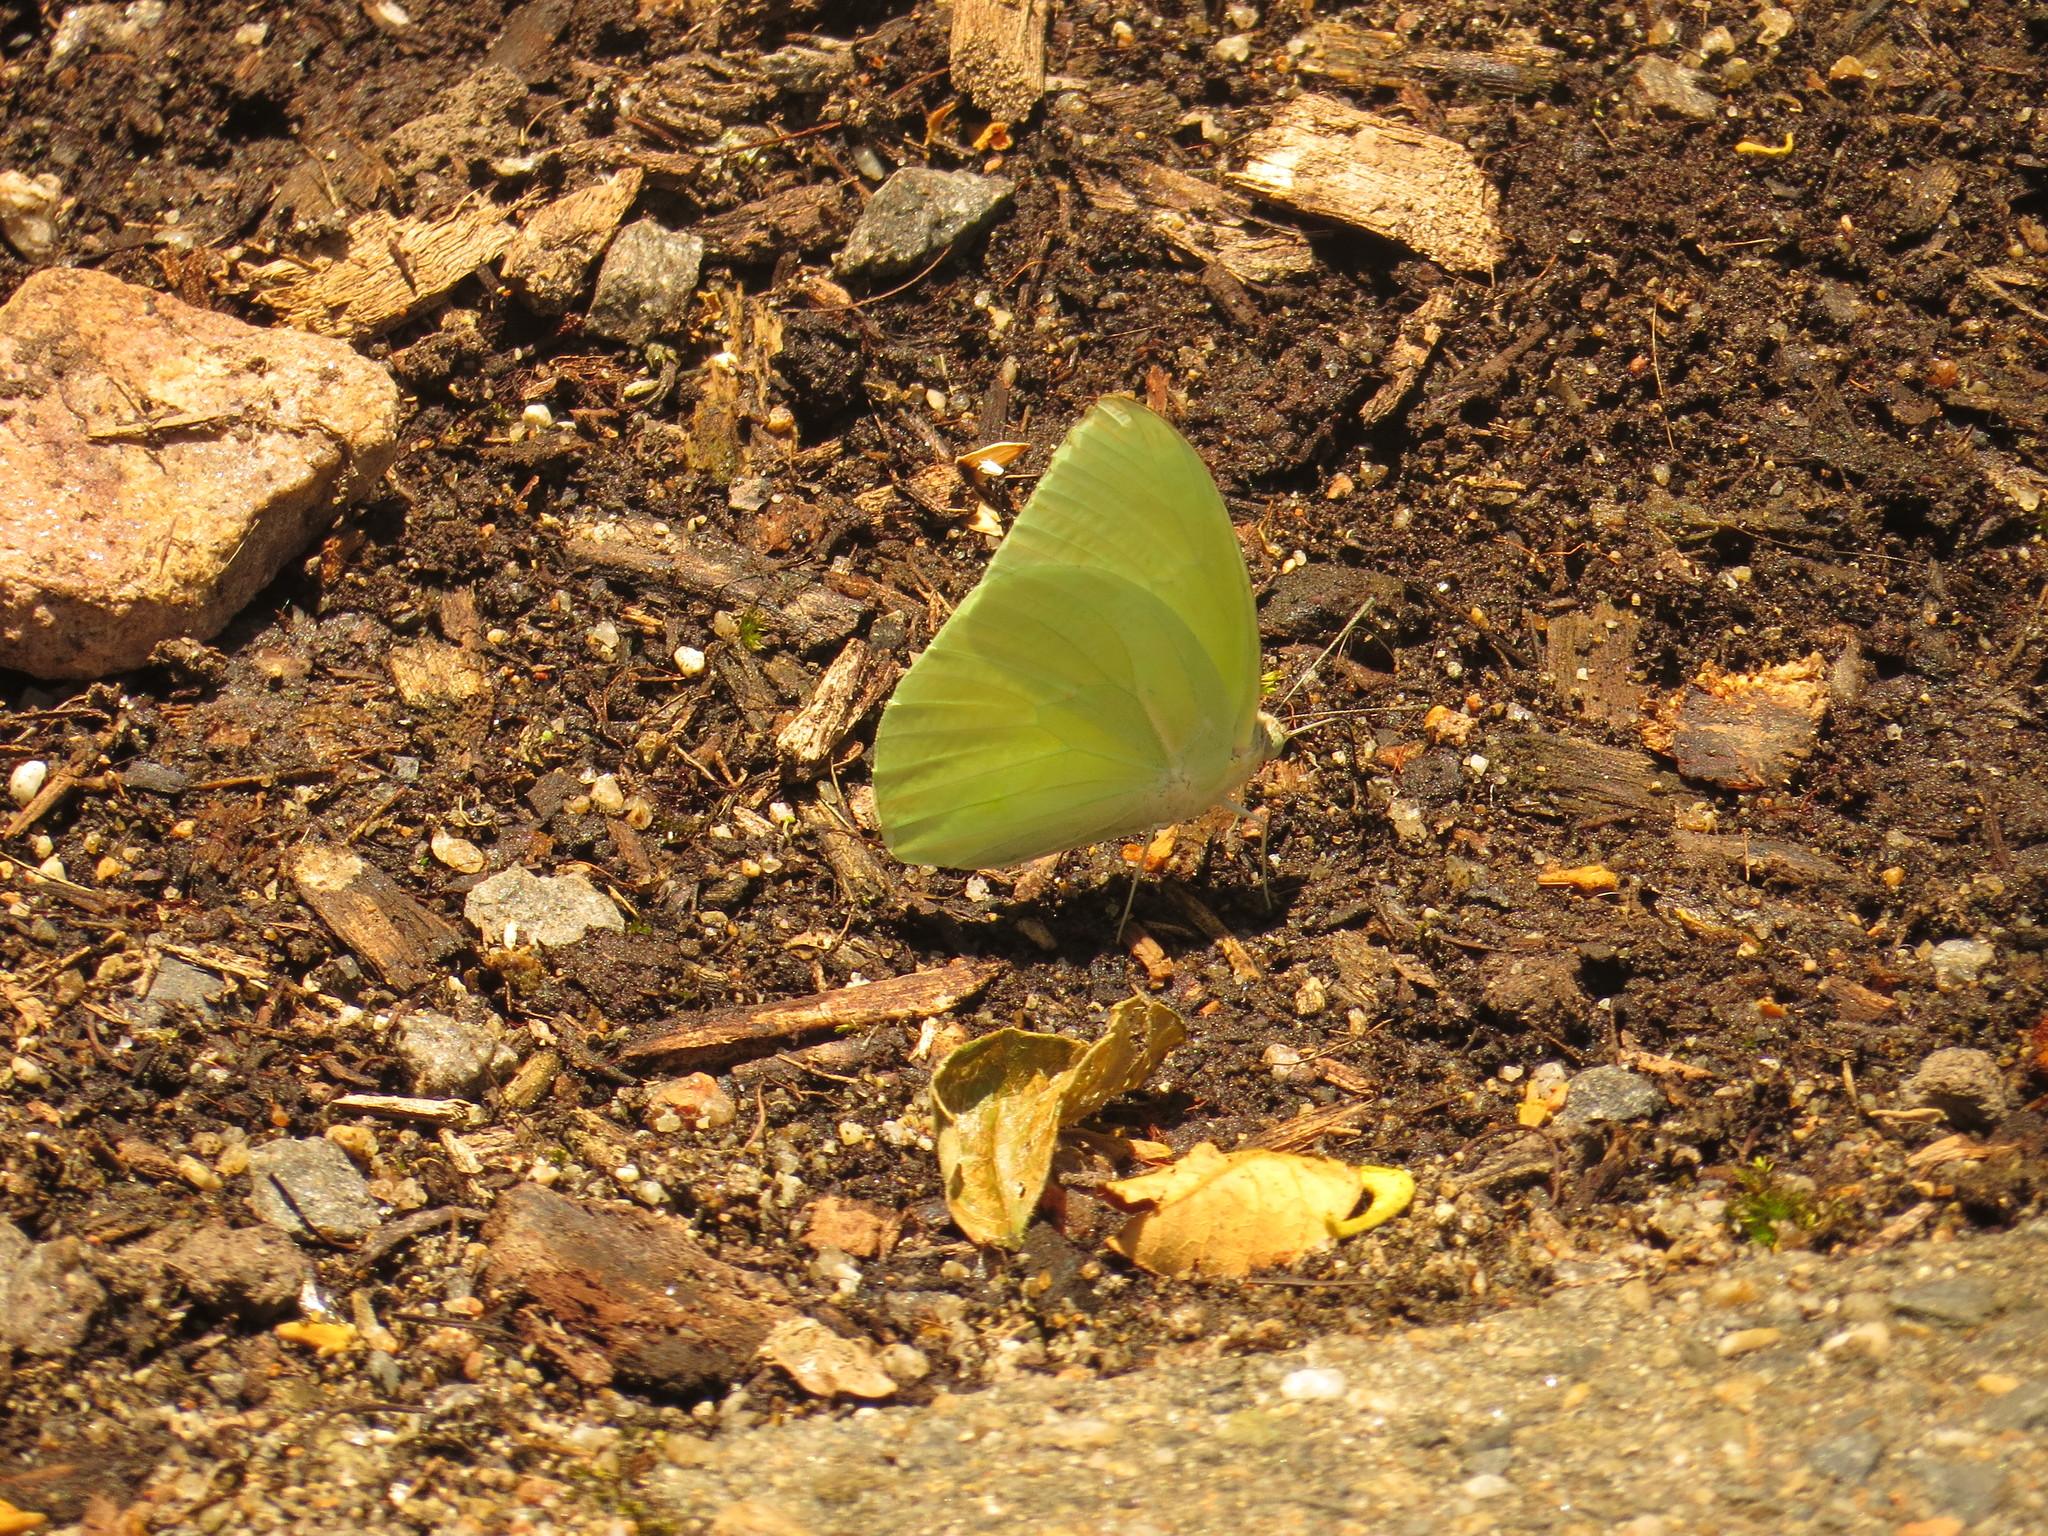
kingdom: Animalia
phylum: Arthropoda
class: Insecta
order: Lepidoptera
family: Pieridae
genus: Catopsilia
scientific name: Catopsilia pomona
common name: Common emigrant
